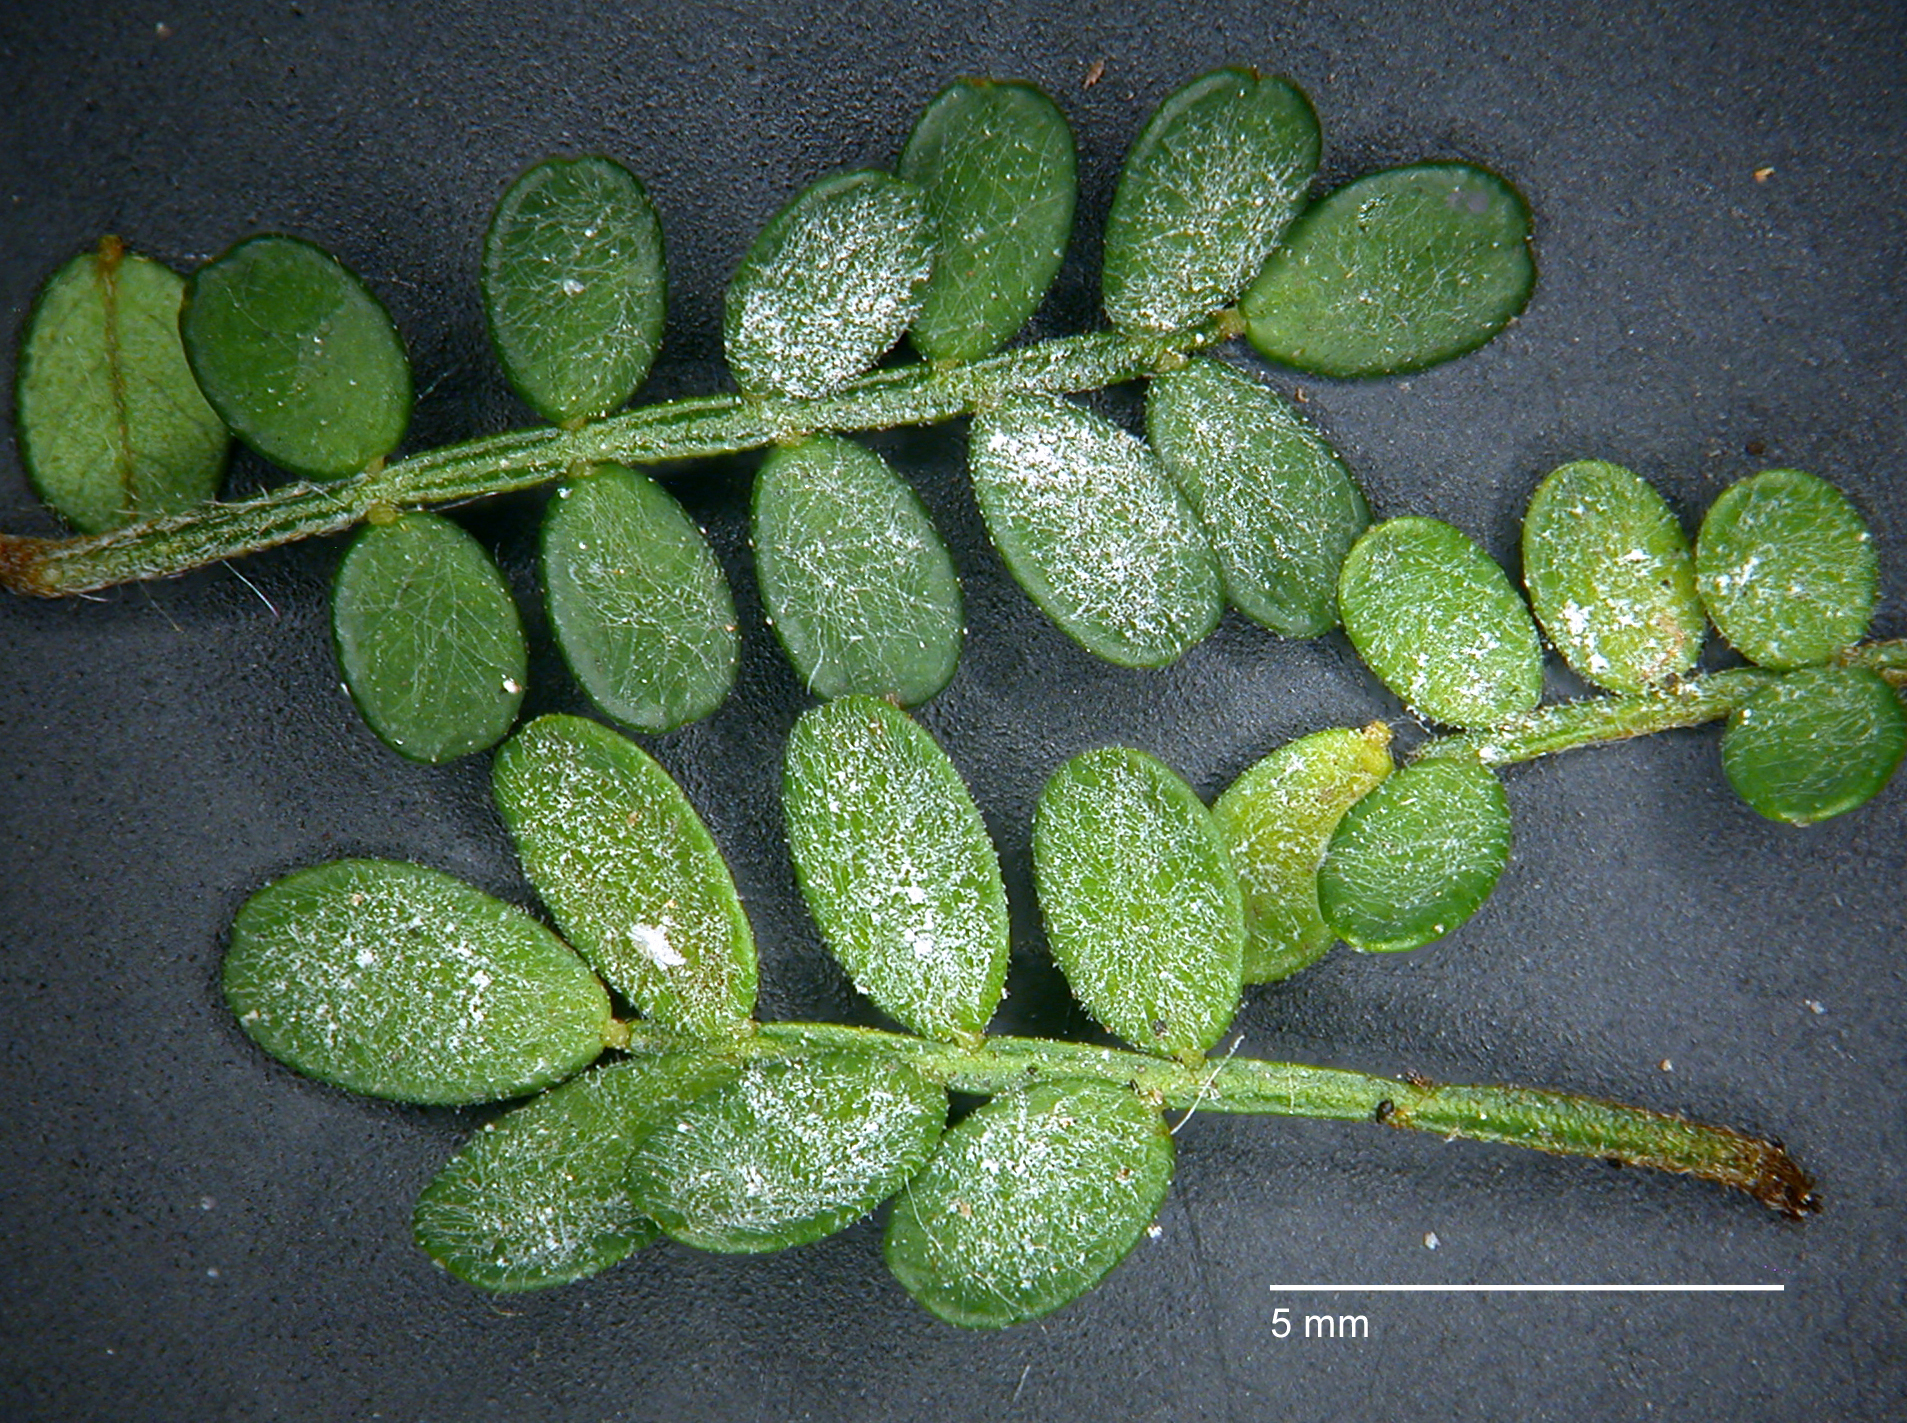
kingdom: Fungi
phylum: Ascomycota
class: Leotiomycetes
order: Helotiales
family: Erysiphaceae
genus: Pseudoidium
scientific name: Pseudoidium hardenbergiae
